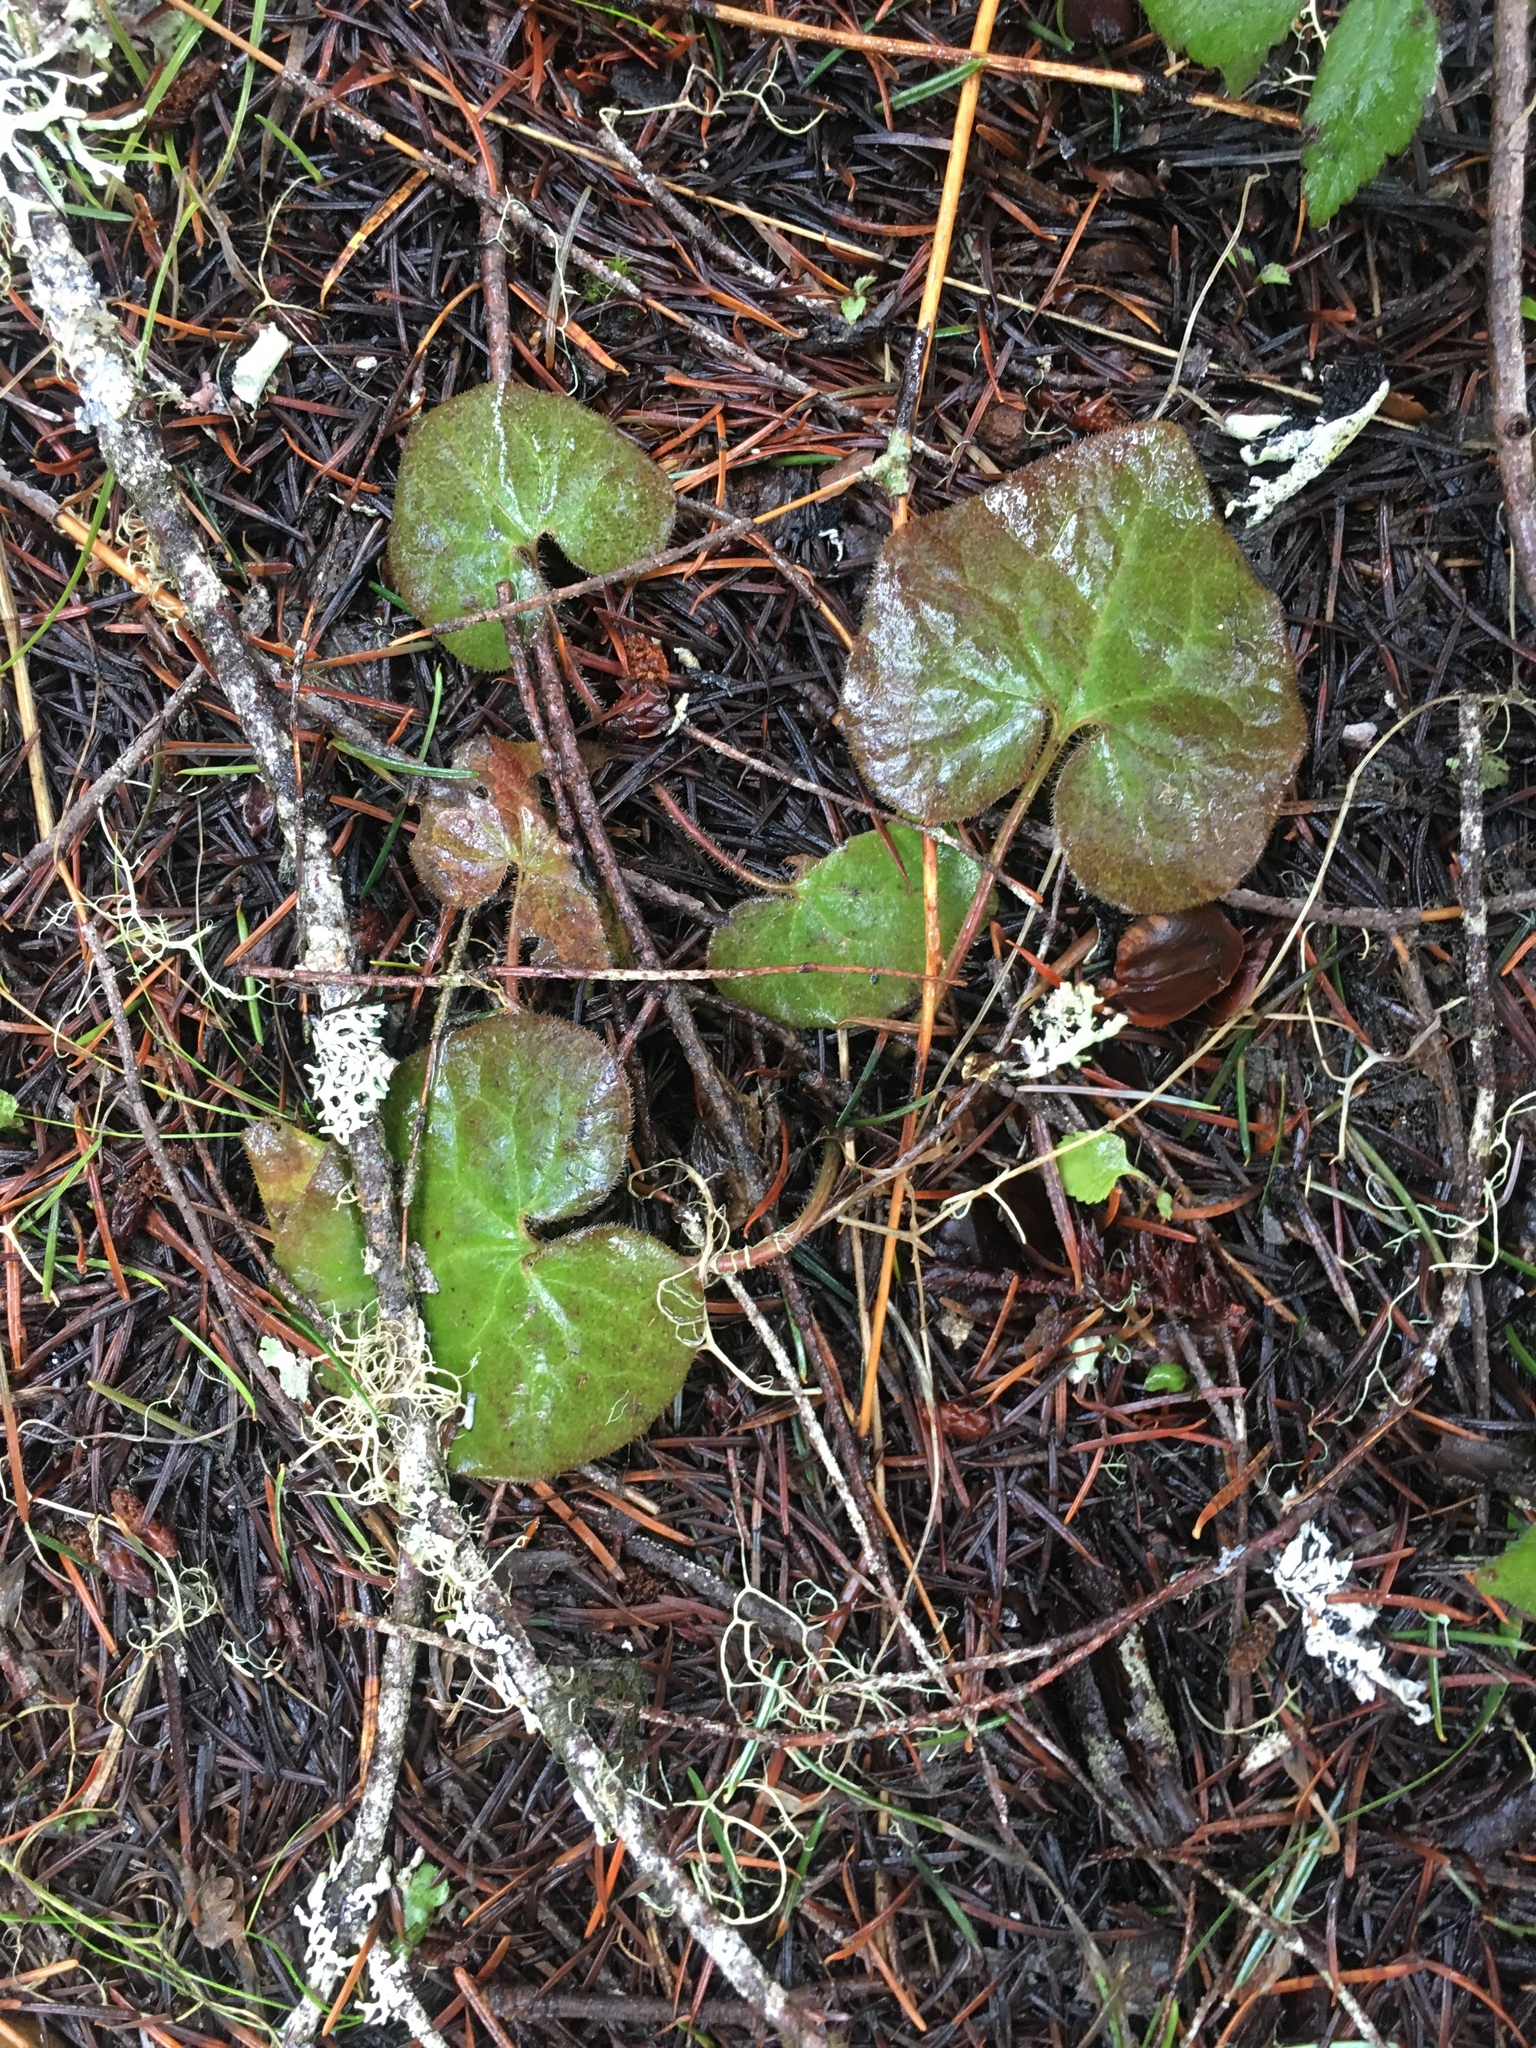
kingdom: Plantae
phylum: Tracheophyta
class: Magnoliopsida
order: Piperales
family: Aristolochiaceae
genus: Asarum
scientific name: Asarum caudatum
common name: Wild ginger
